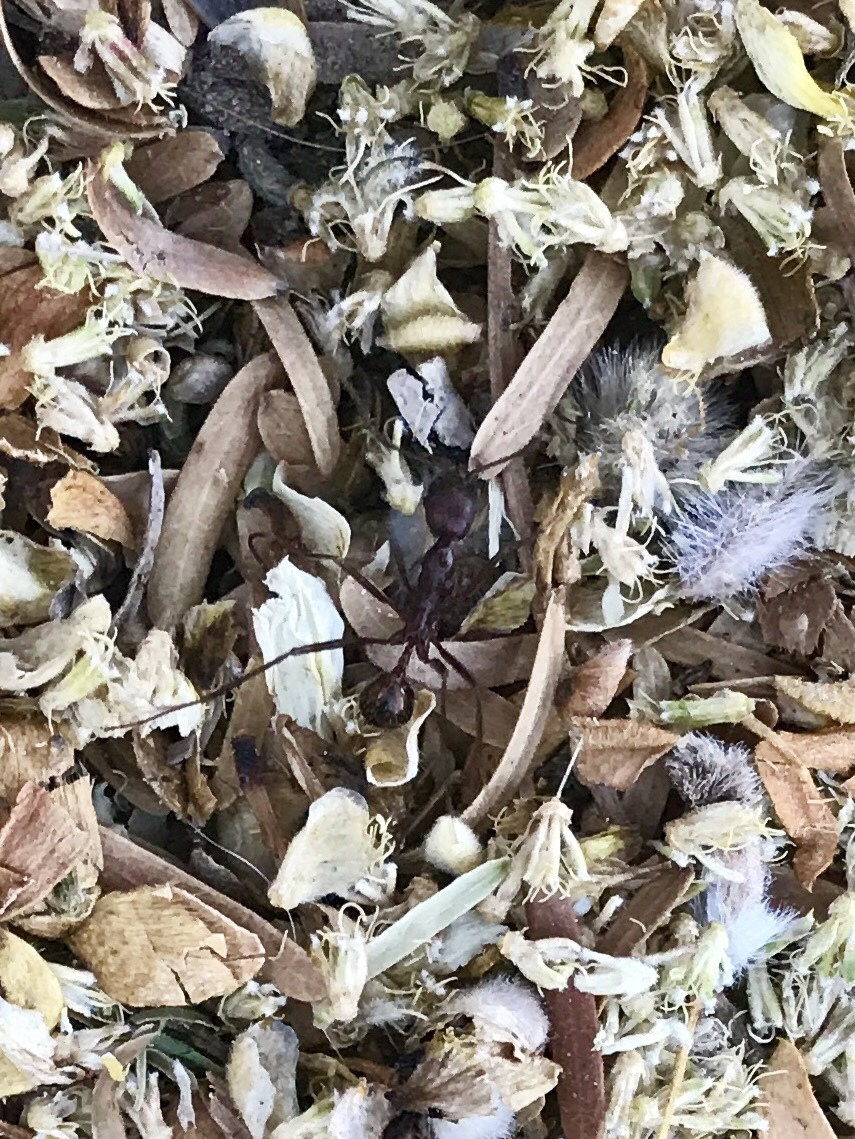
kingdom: Animalia
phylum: Arthropoda
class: Insecta
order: Hymenoptera
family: Formicidae
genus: Novomessor
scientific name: Novomessor cockerelli
